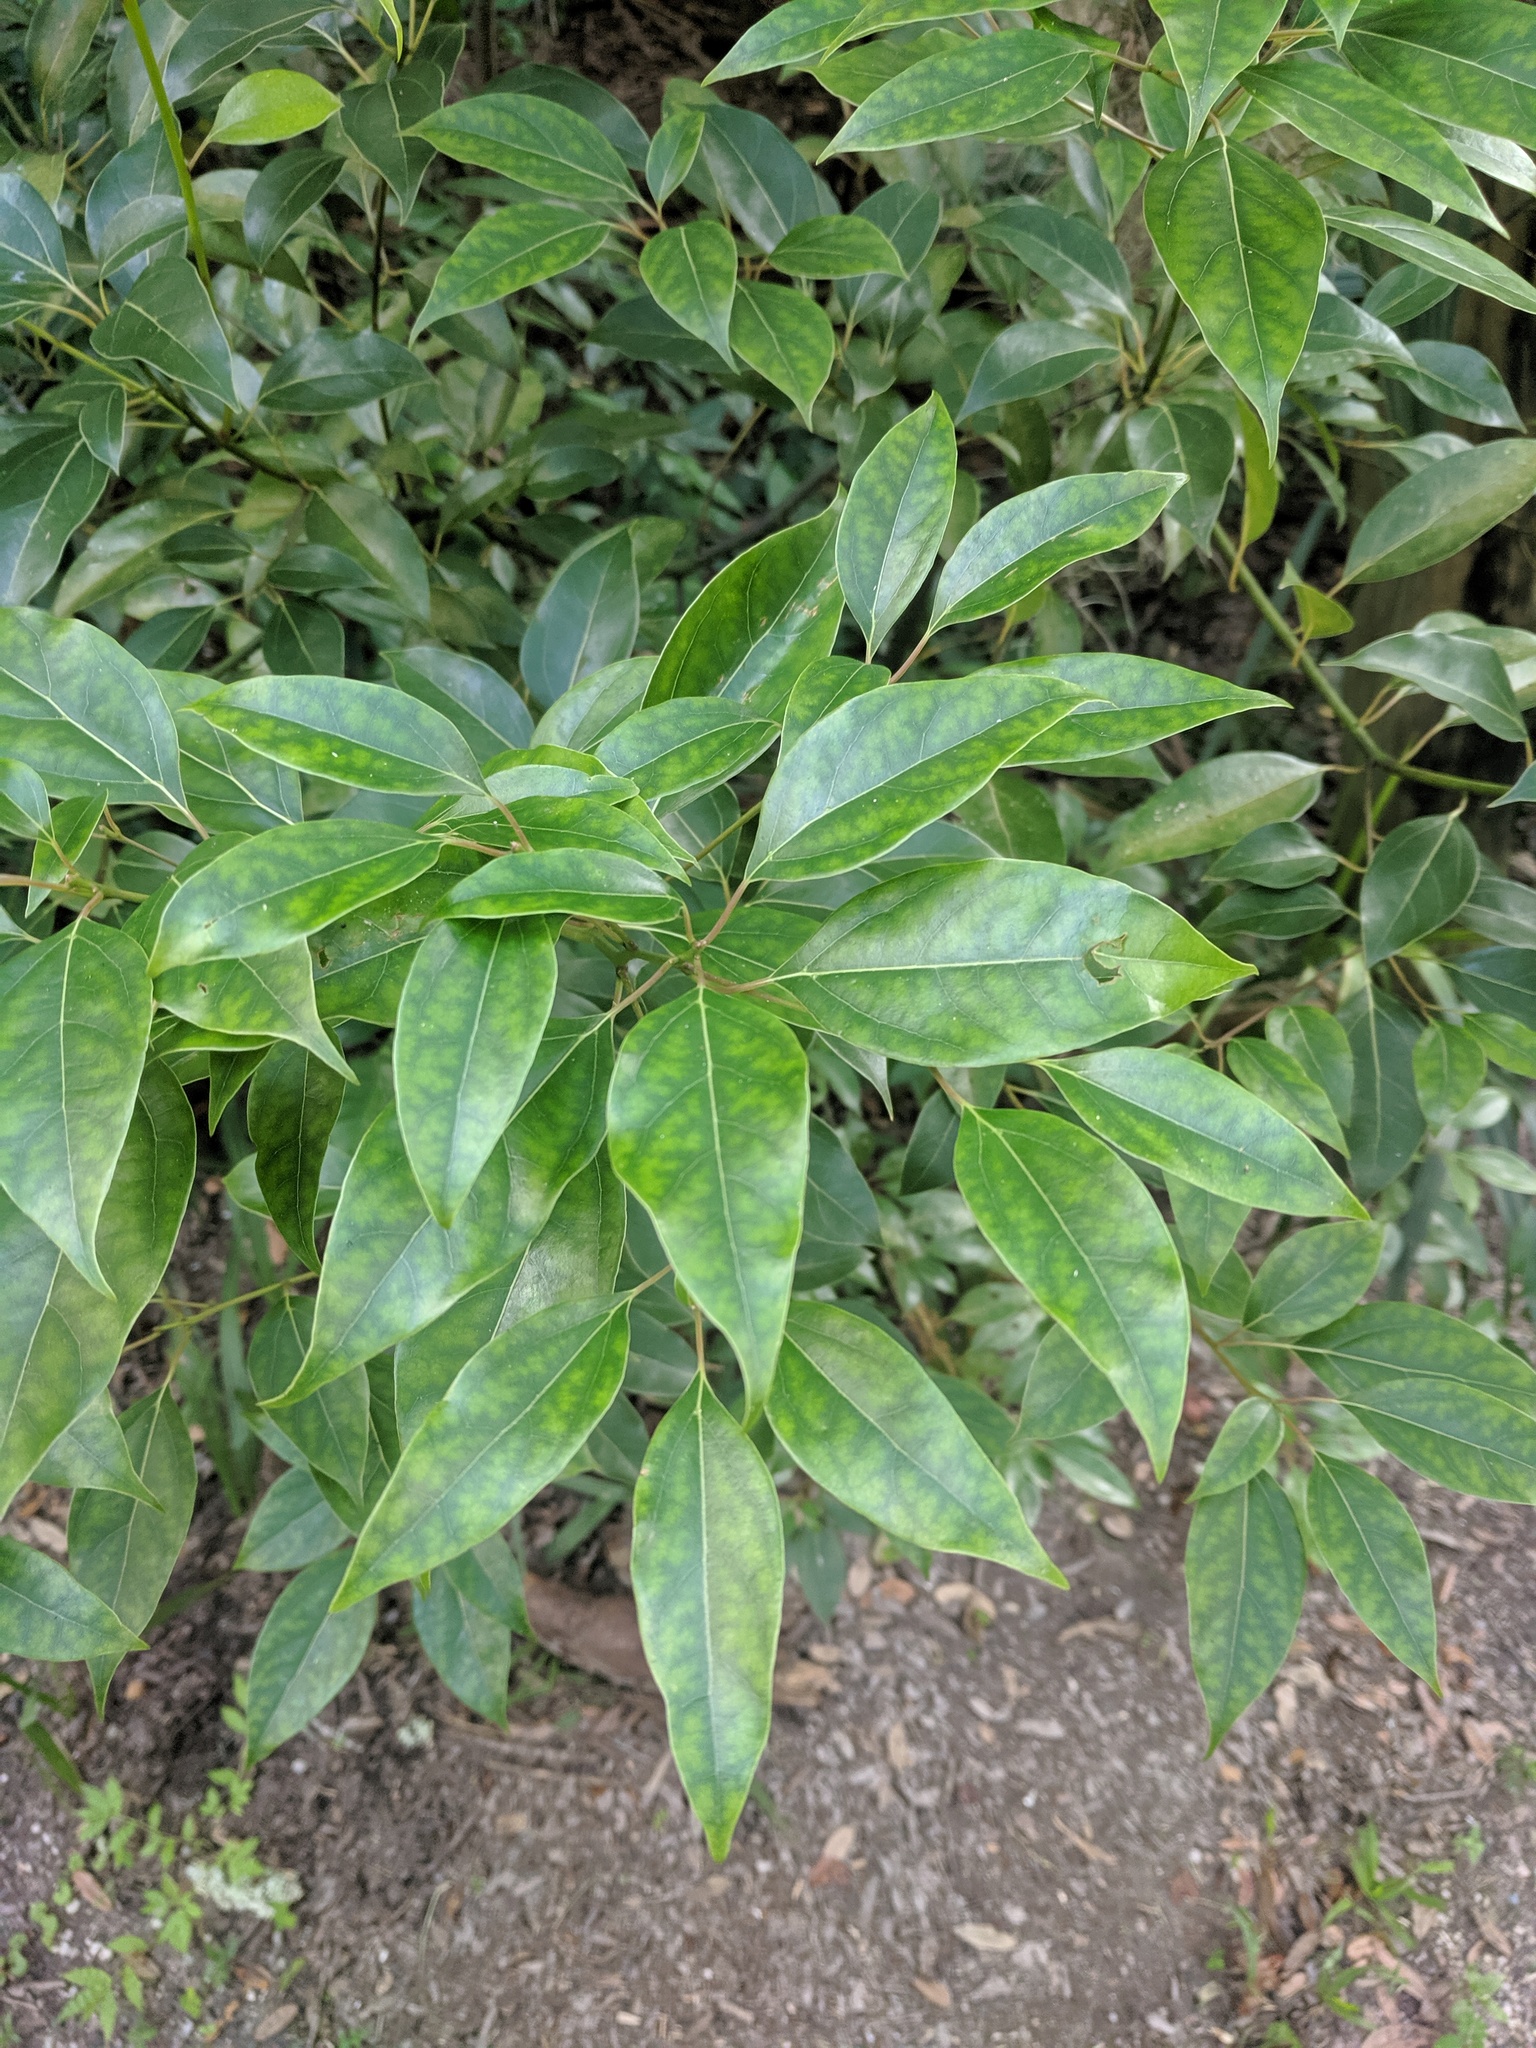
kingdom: Plantae
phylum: Tracheophyta
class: Magnoliopsida
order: Laurales
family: Lauraceae
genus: Cinnamomum
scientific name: Cinnamomum camphora
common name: Camphortree
